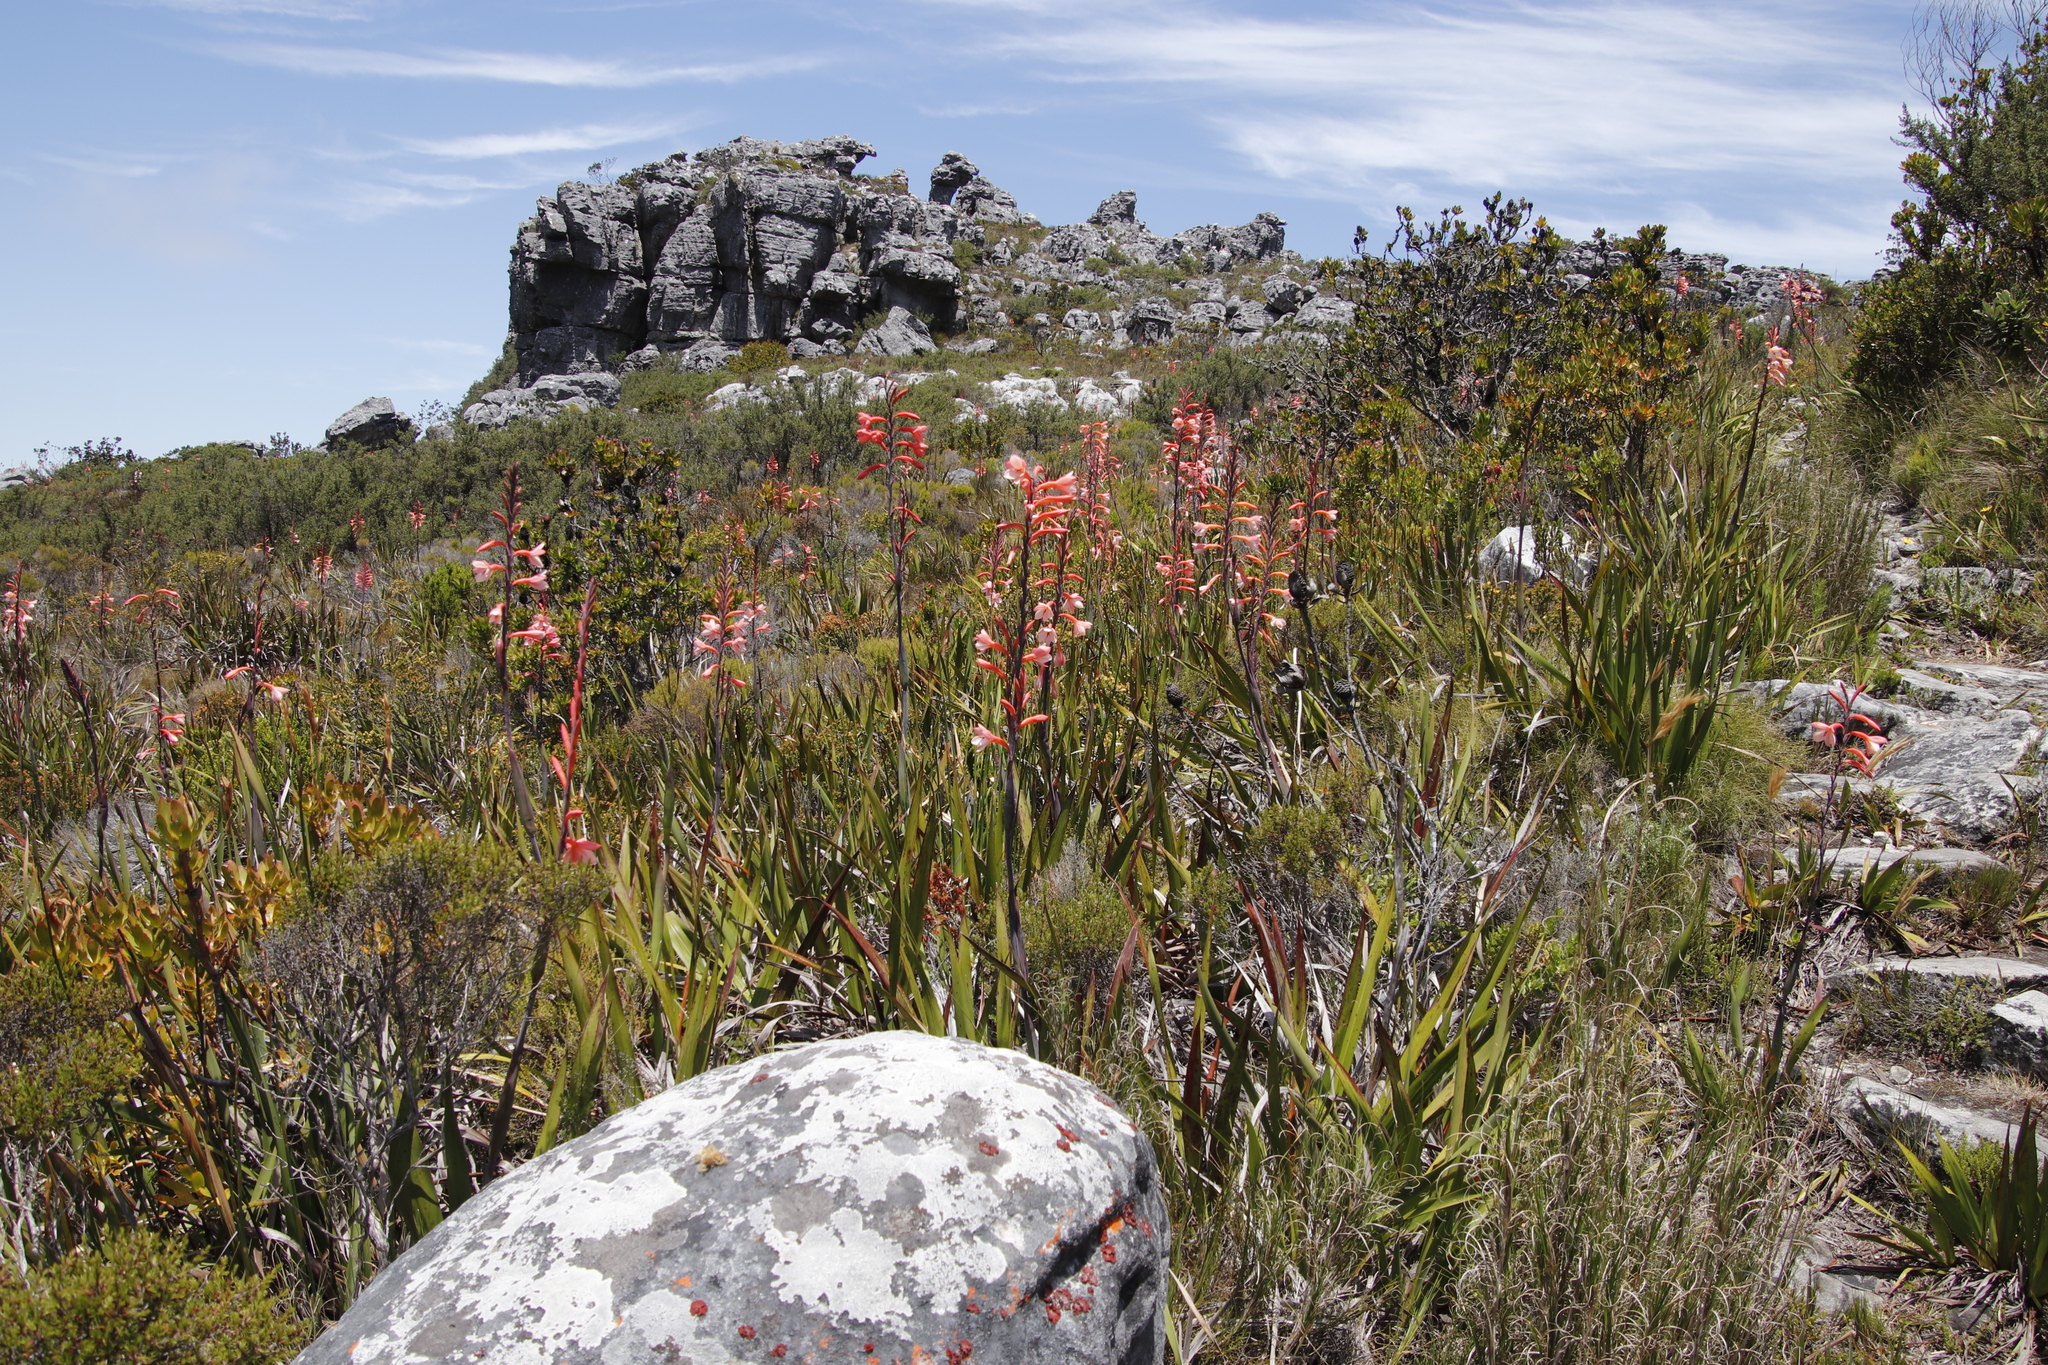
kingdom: Plantae
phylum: Tracheophyta
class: Liliopsida
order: Asparagales
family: Iridaceae
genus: Watsonia
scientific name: Watsonia tabularis
